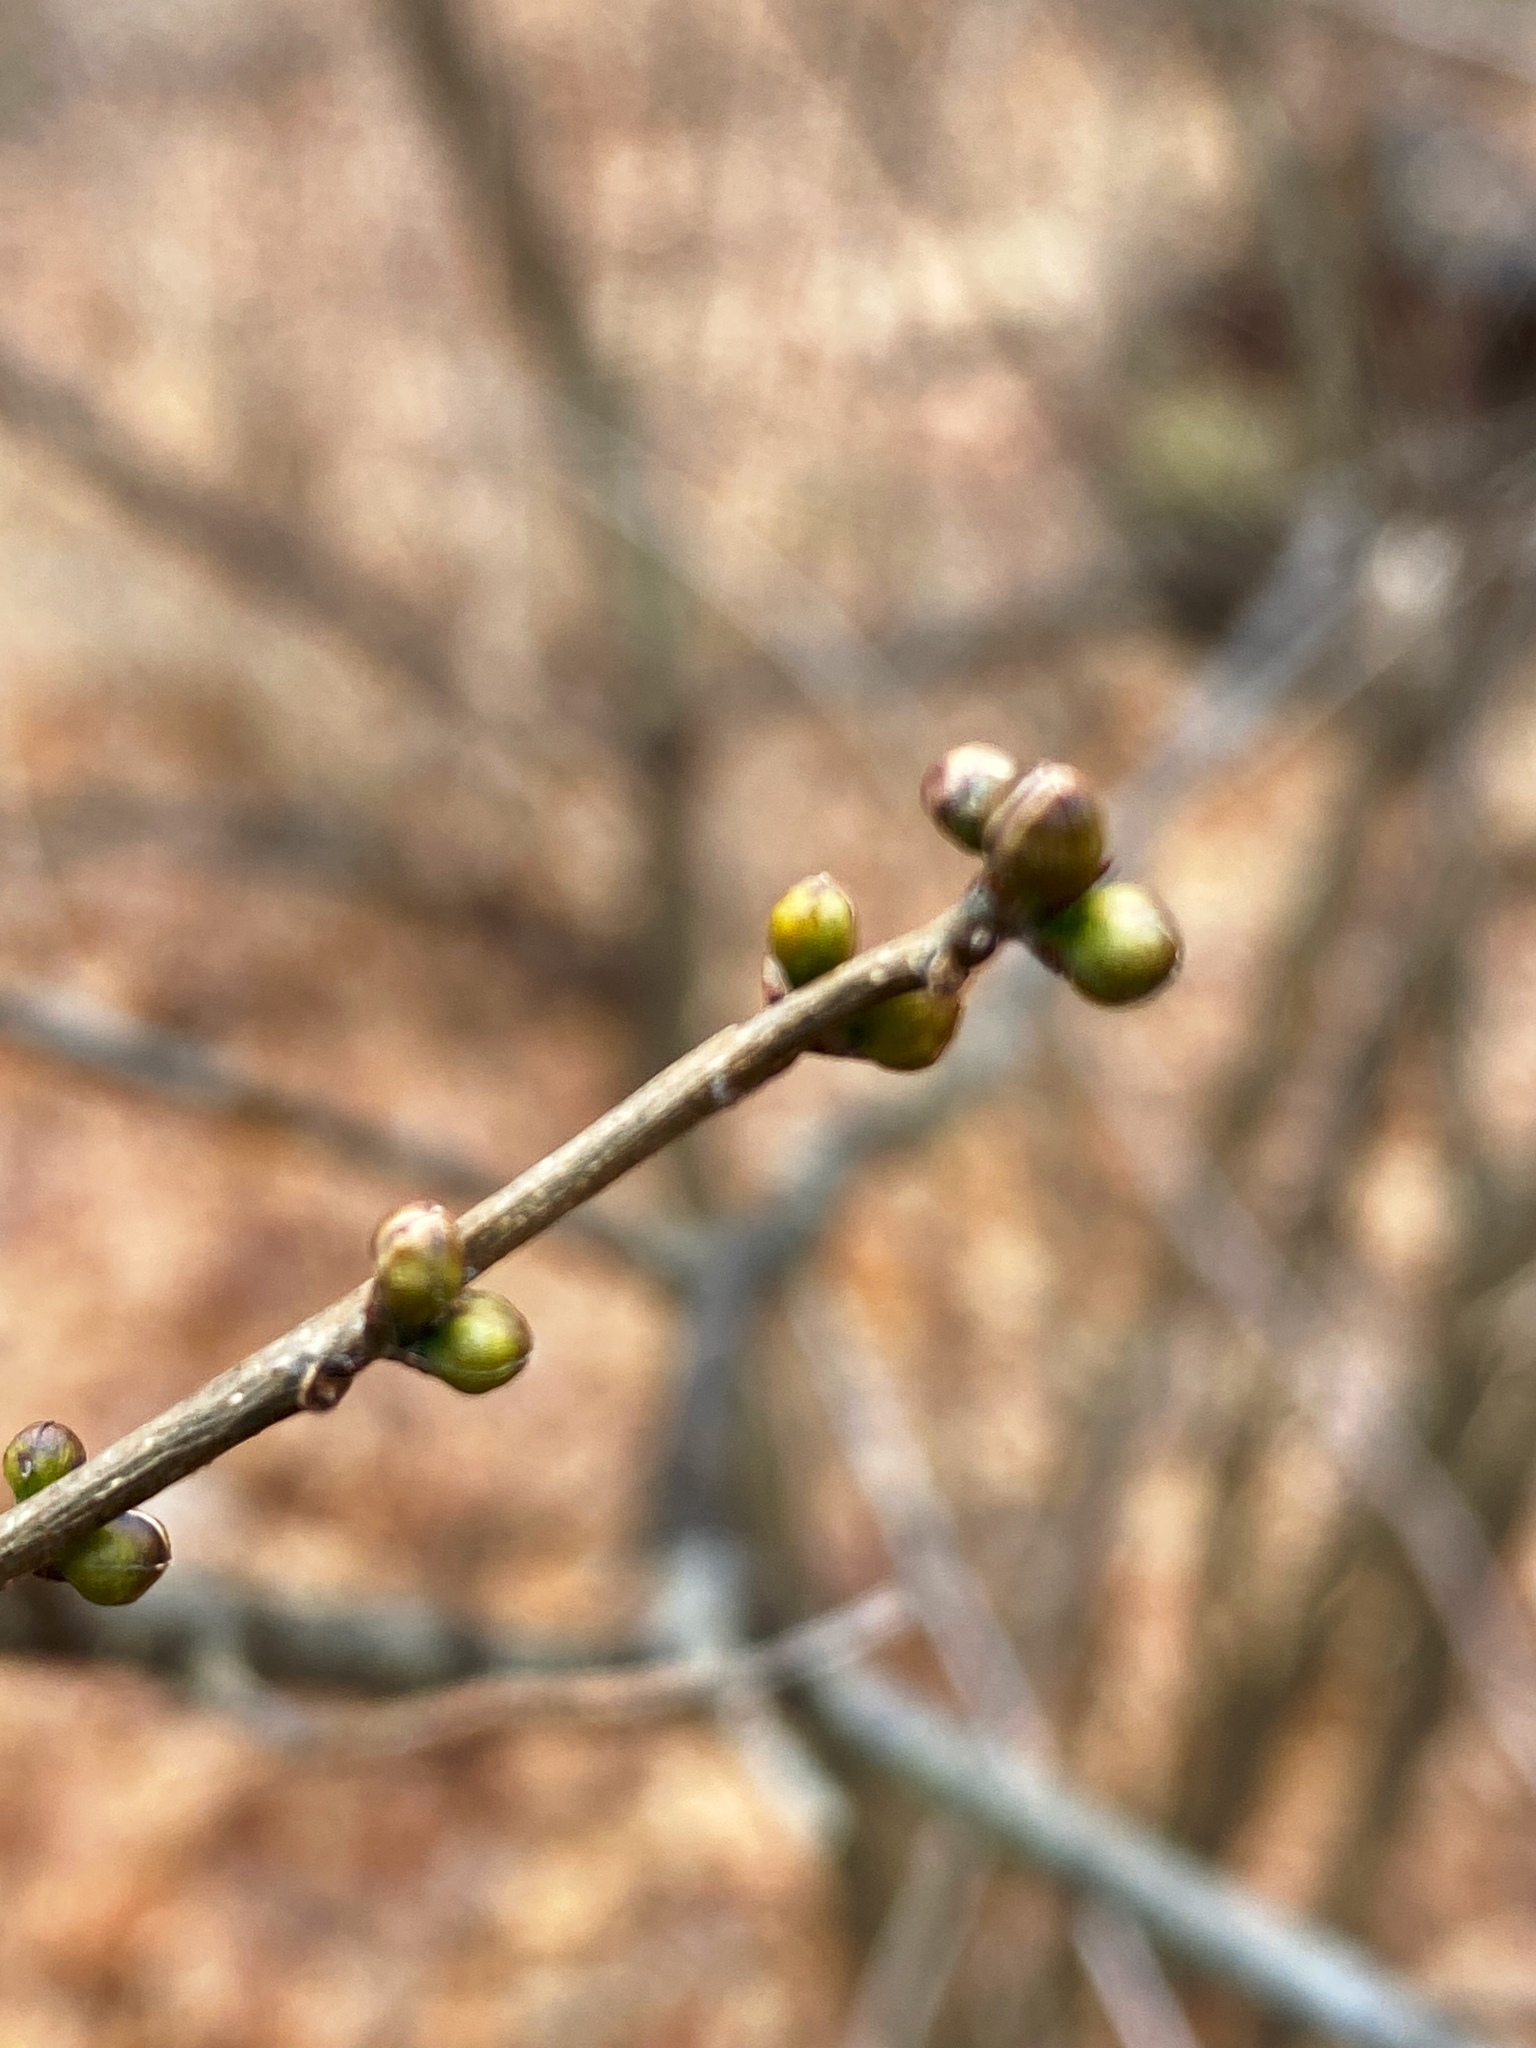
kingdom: Plantae
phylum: Tracheophyta
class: Magnoliopsida
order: Laurales
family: Lauraceae
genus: Lindera
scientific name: Lindera benzoin
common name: Spicebush
